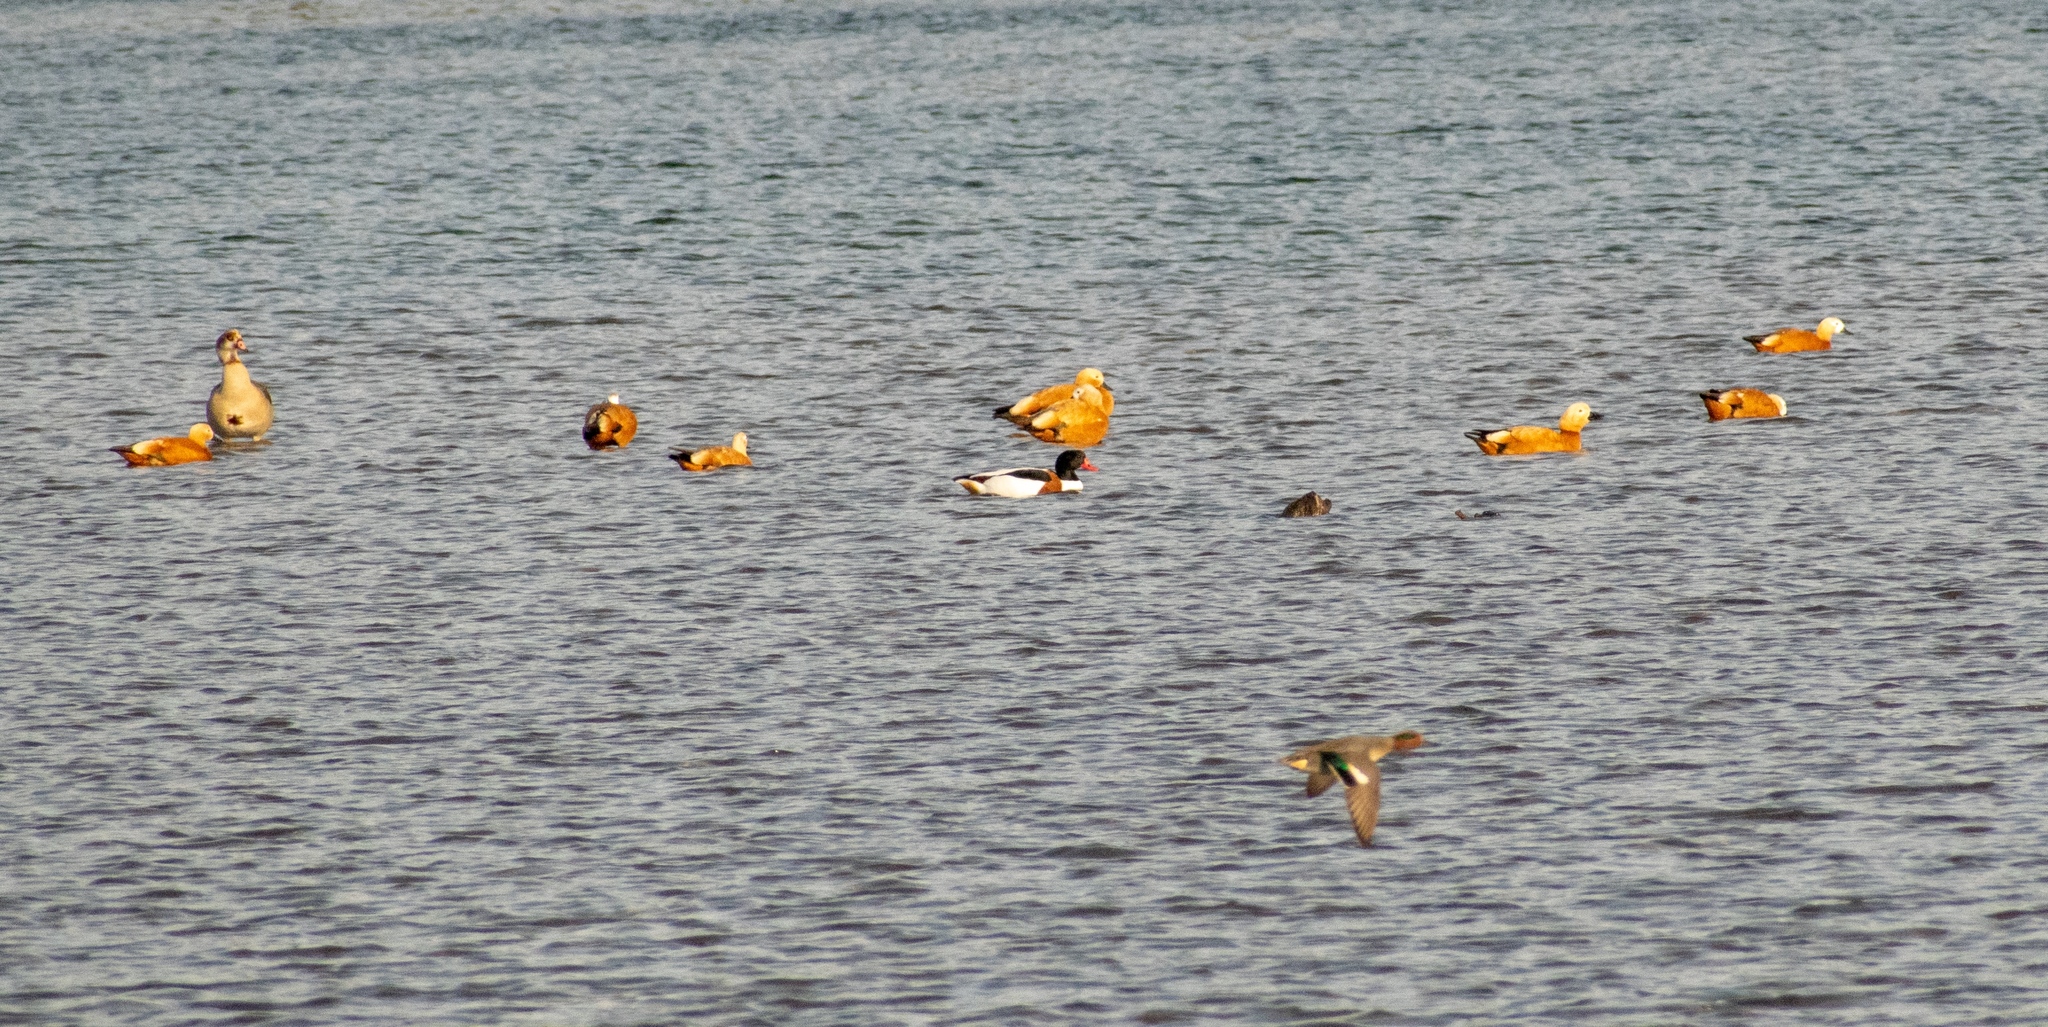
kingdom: Animalia
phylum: Chordata
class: Aves
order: Anseriformes
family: Anatidae
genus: Tadorna
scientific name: Tadorna ferruginea
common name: Ruddy shelduck
